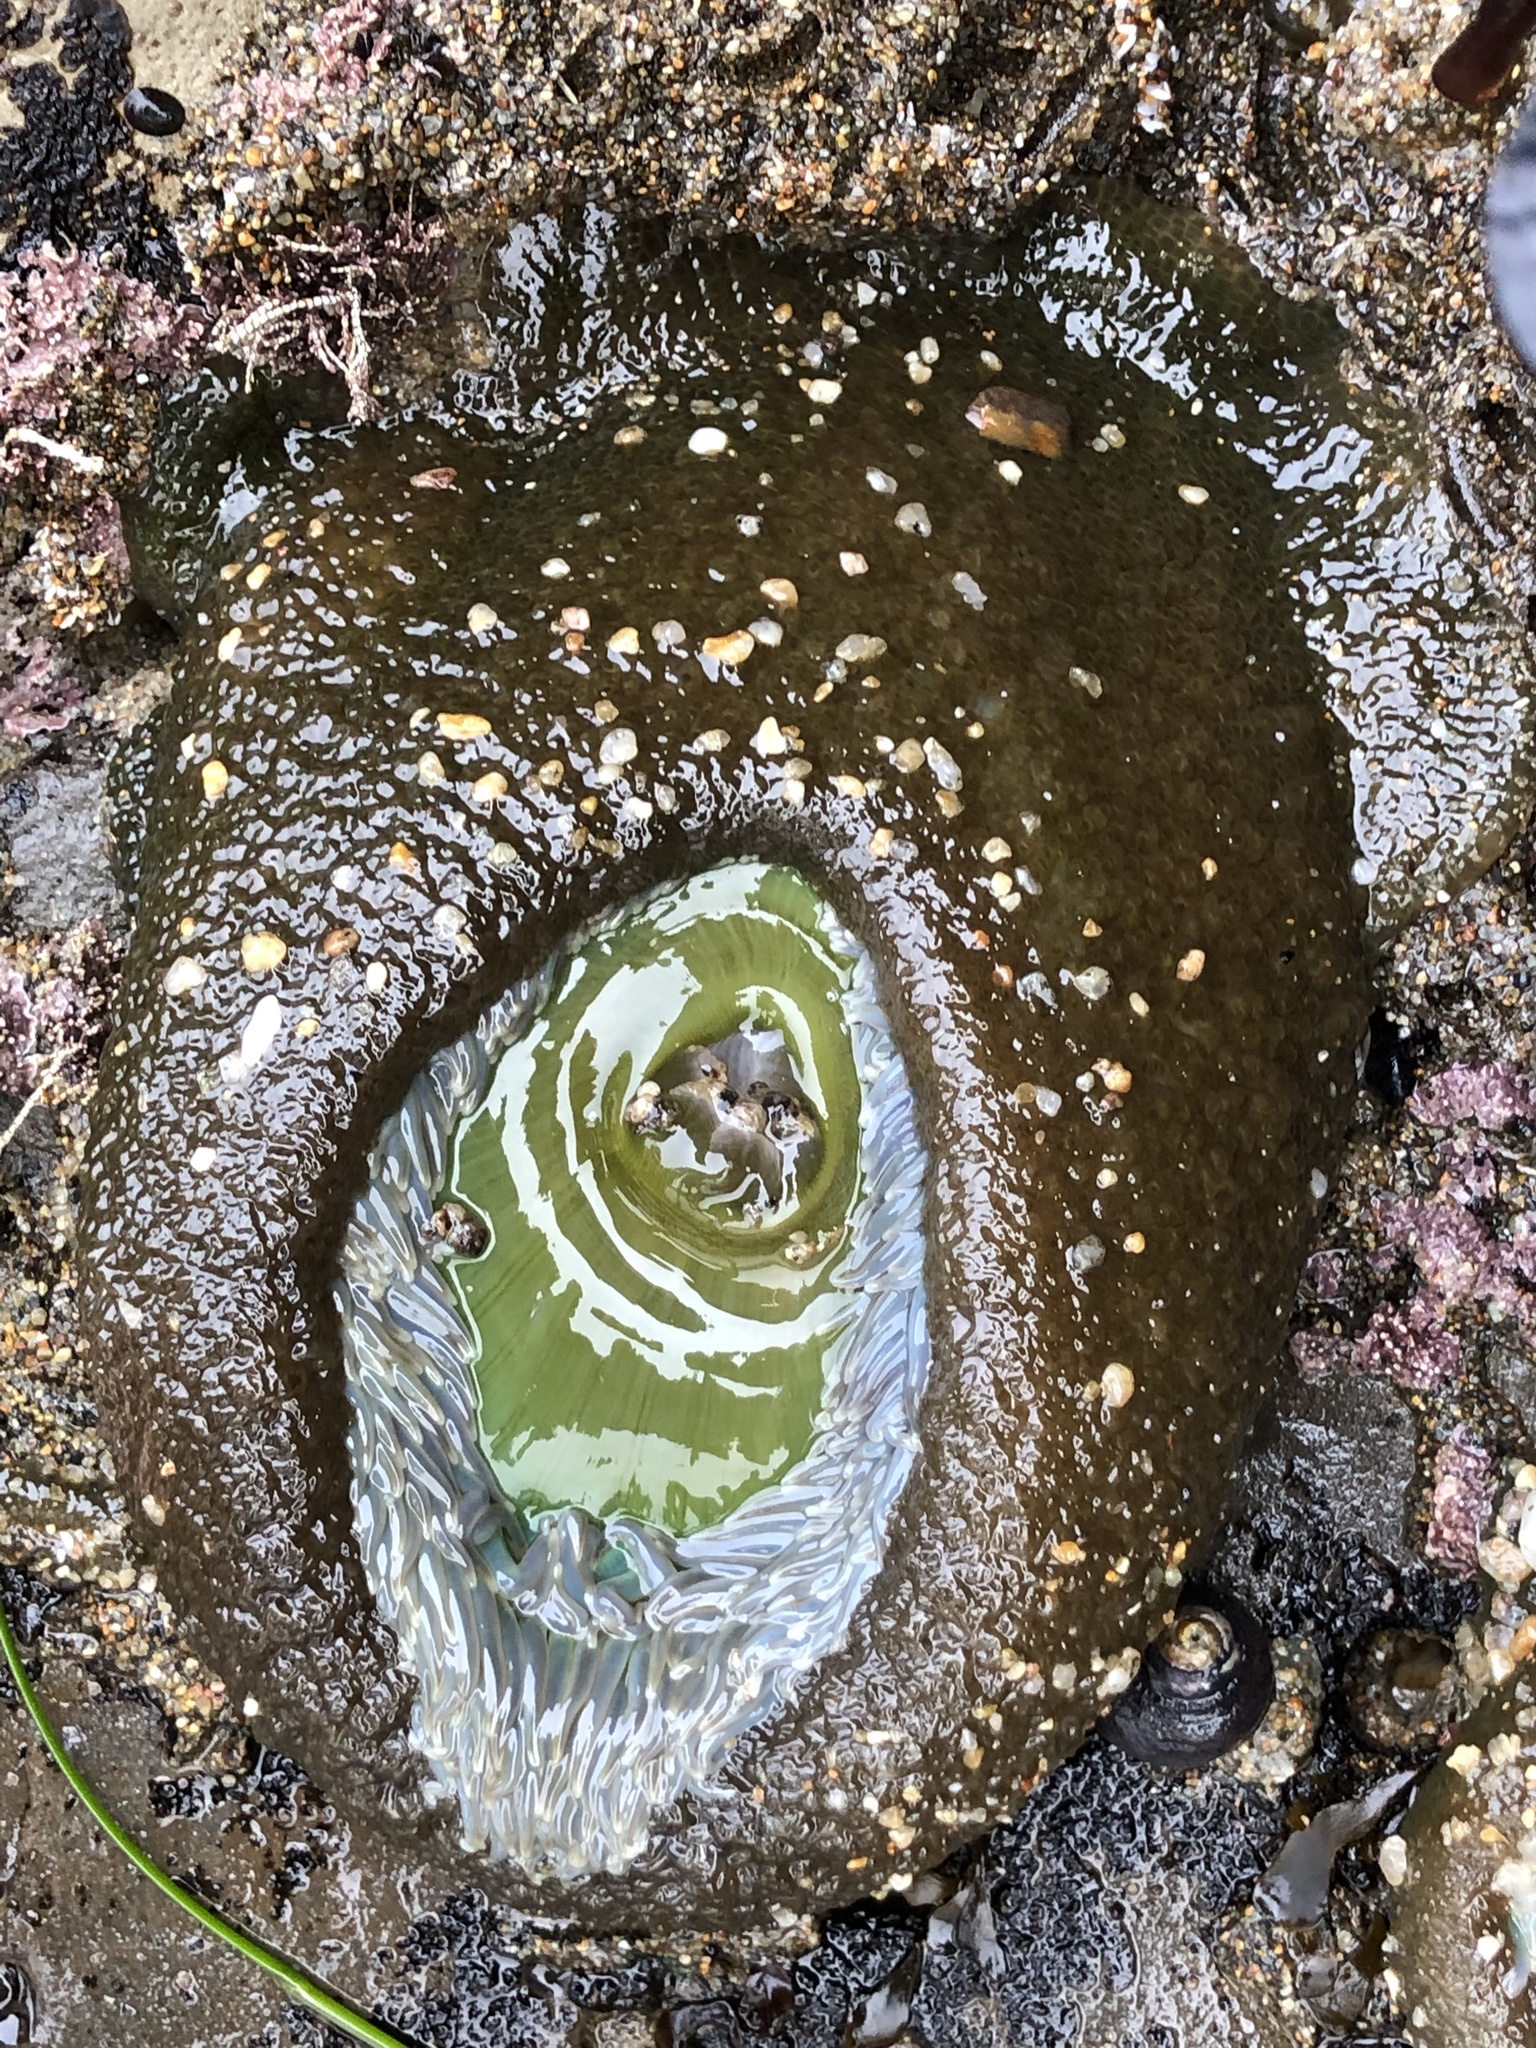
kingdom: Animalia
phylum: Cnidaria
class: Anthozoa
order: Actiniaria
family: Actiniidae
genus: Anthopleura
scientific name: Anthopleura xanthogrammica
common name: Giant green anemone
